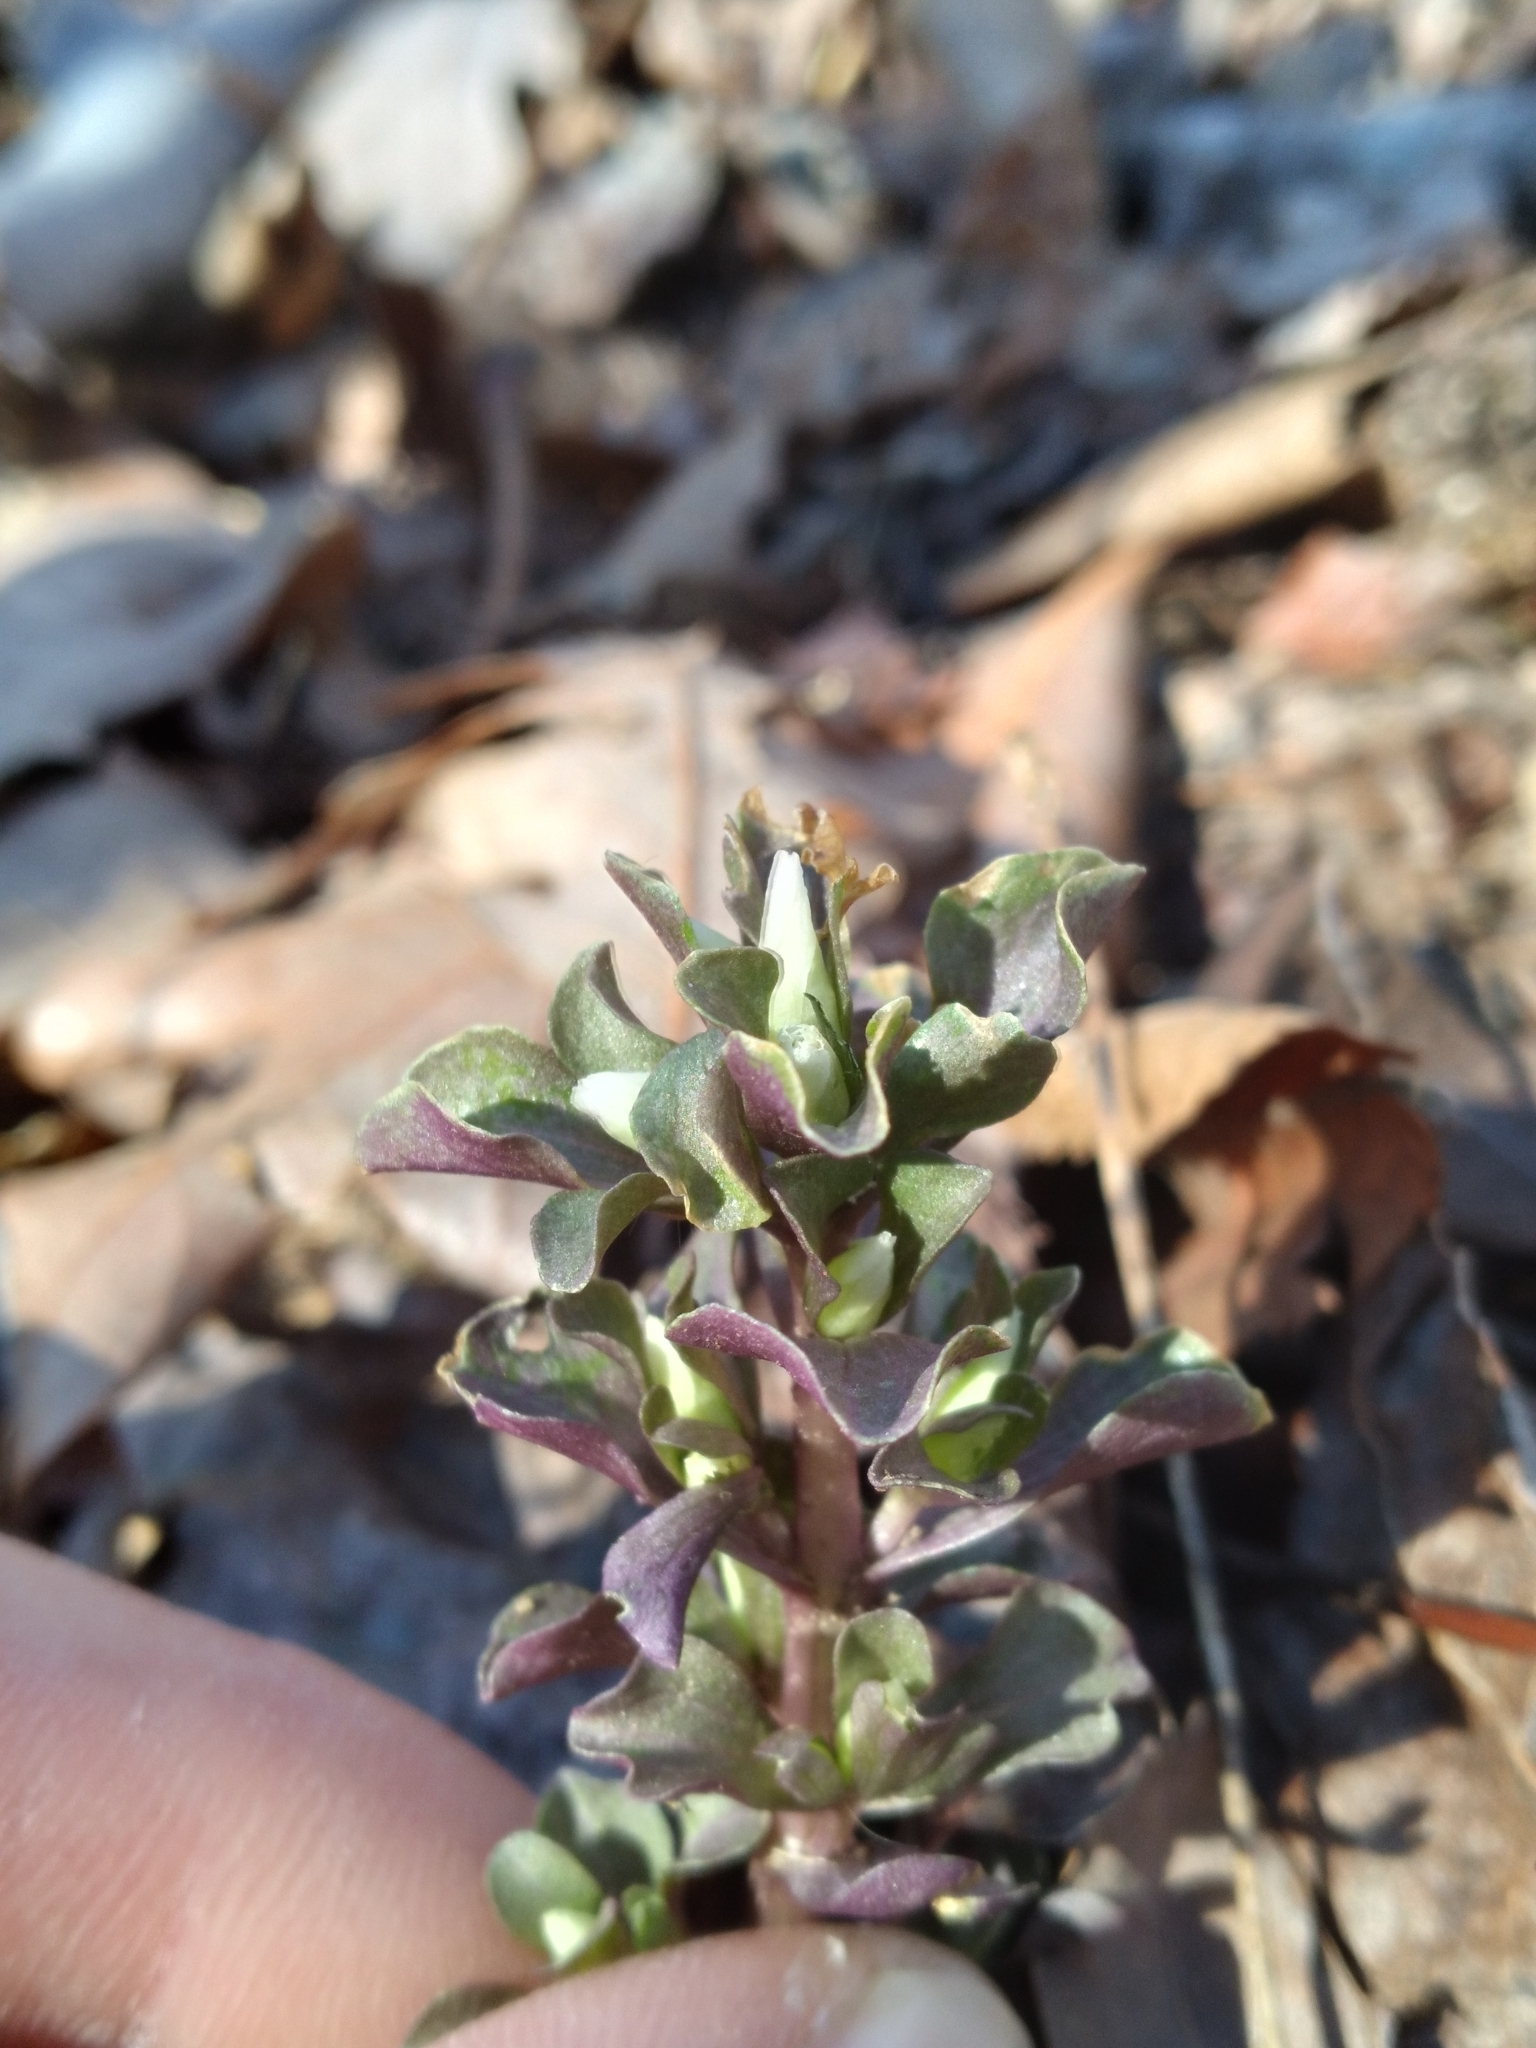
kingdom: Plantae
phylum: Tracheophyta
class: Magnoliopsida
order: Gentianales
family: Gentianaceae
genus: Obolaria
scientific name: Obolaria virginica
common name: Pennywort
